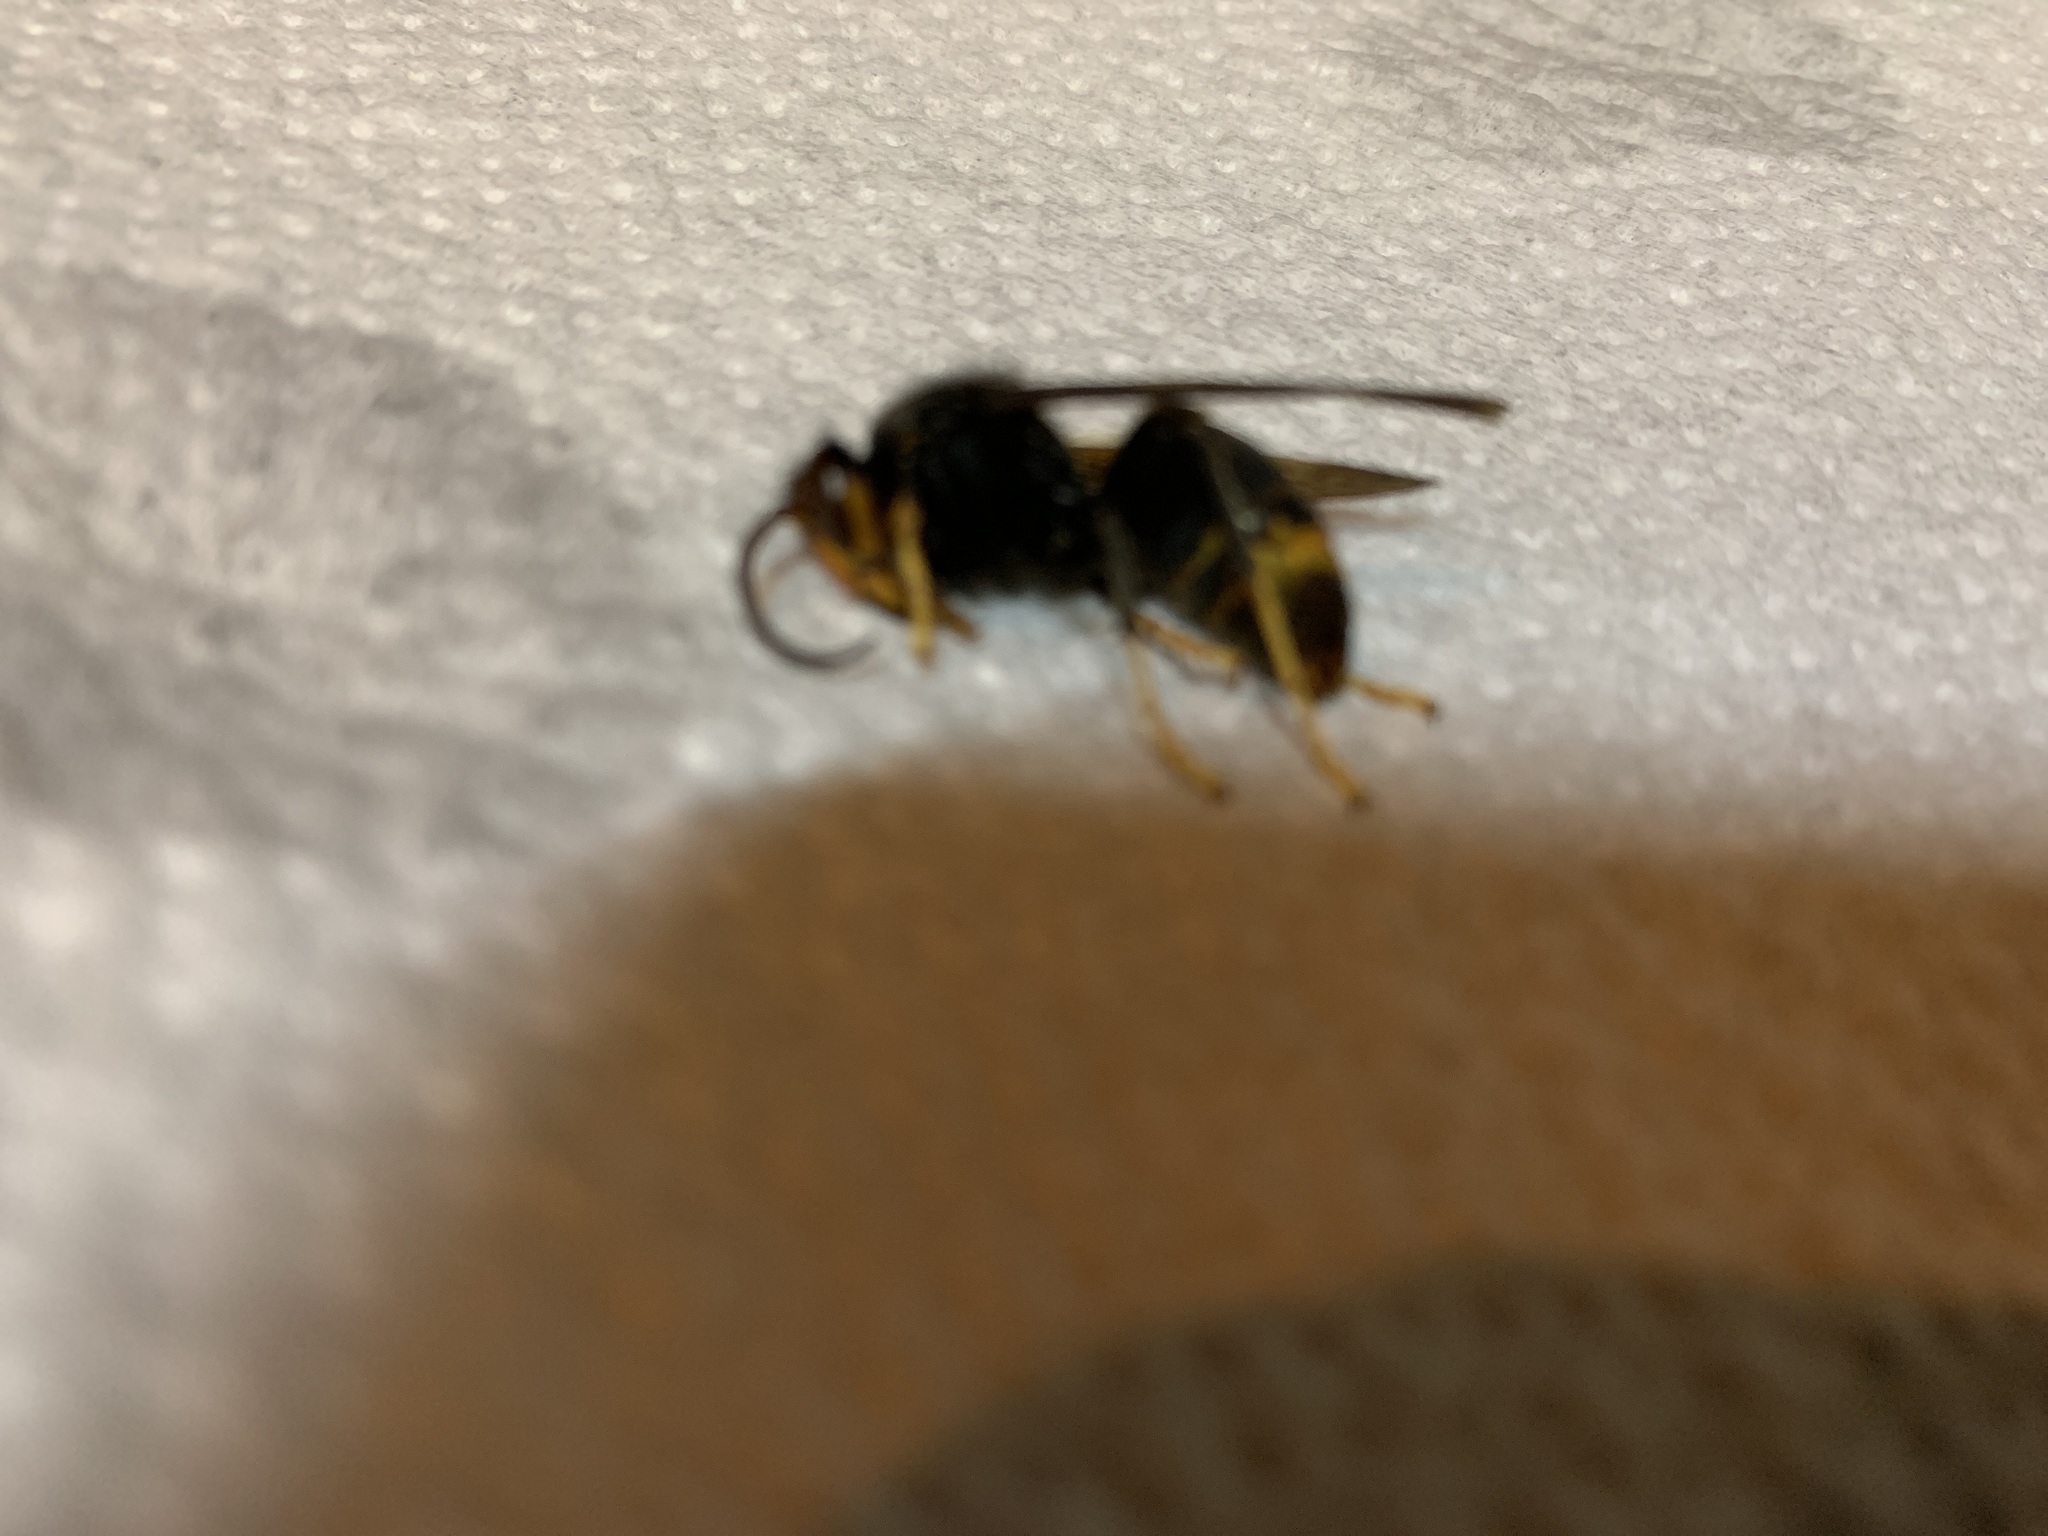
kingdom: Animalia
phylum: Arthropoda
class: Insecta
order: Hymenoptera
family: Vespidae
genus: Vespa
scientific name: Vespa velutina
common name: Asian hornet
